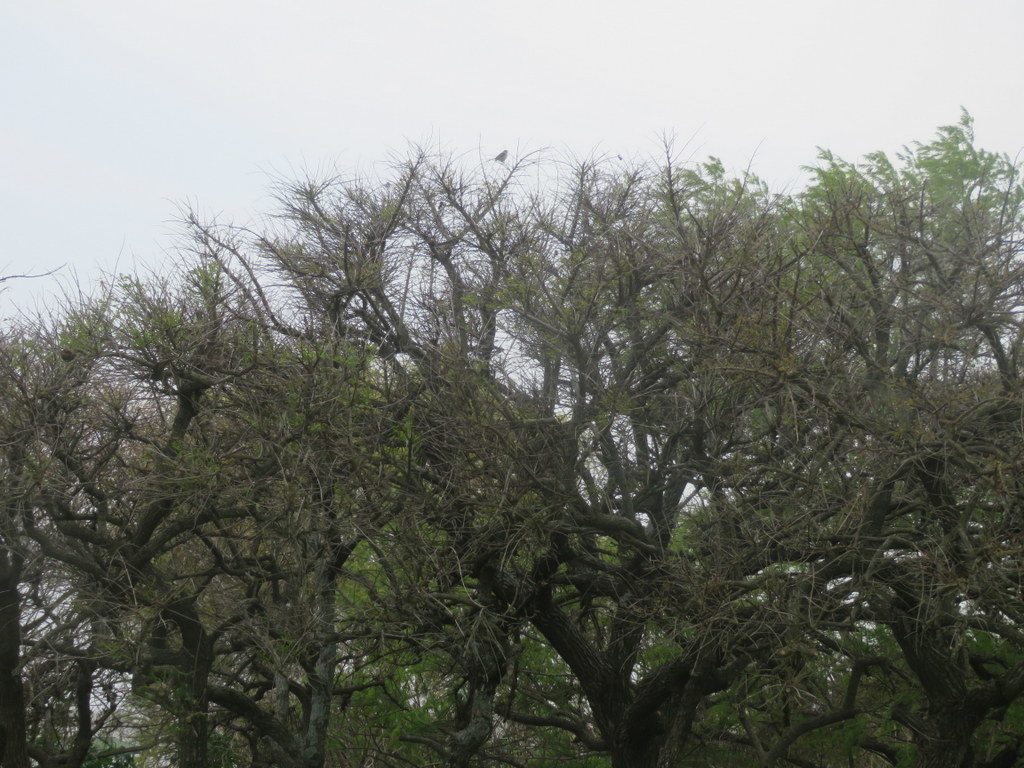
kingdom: Plantae
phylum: Tracheophyta
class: Magnoliopsida
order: Fabales
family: Fabaceae
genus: Erythrina
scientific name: Erythrina crista-galli
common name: Cockspur coral tree
